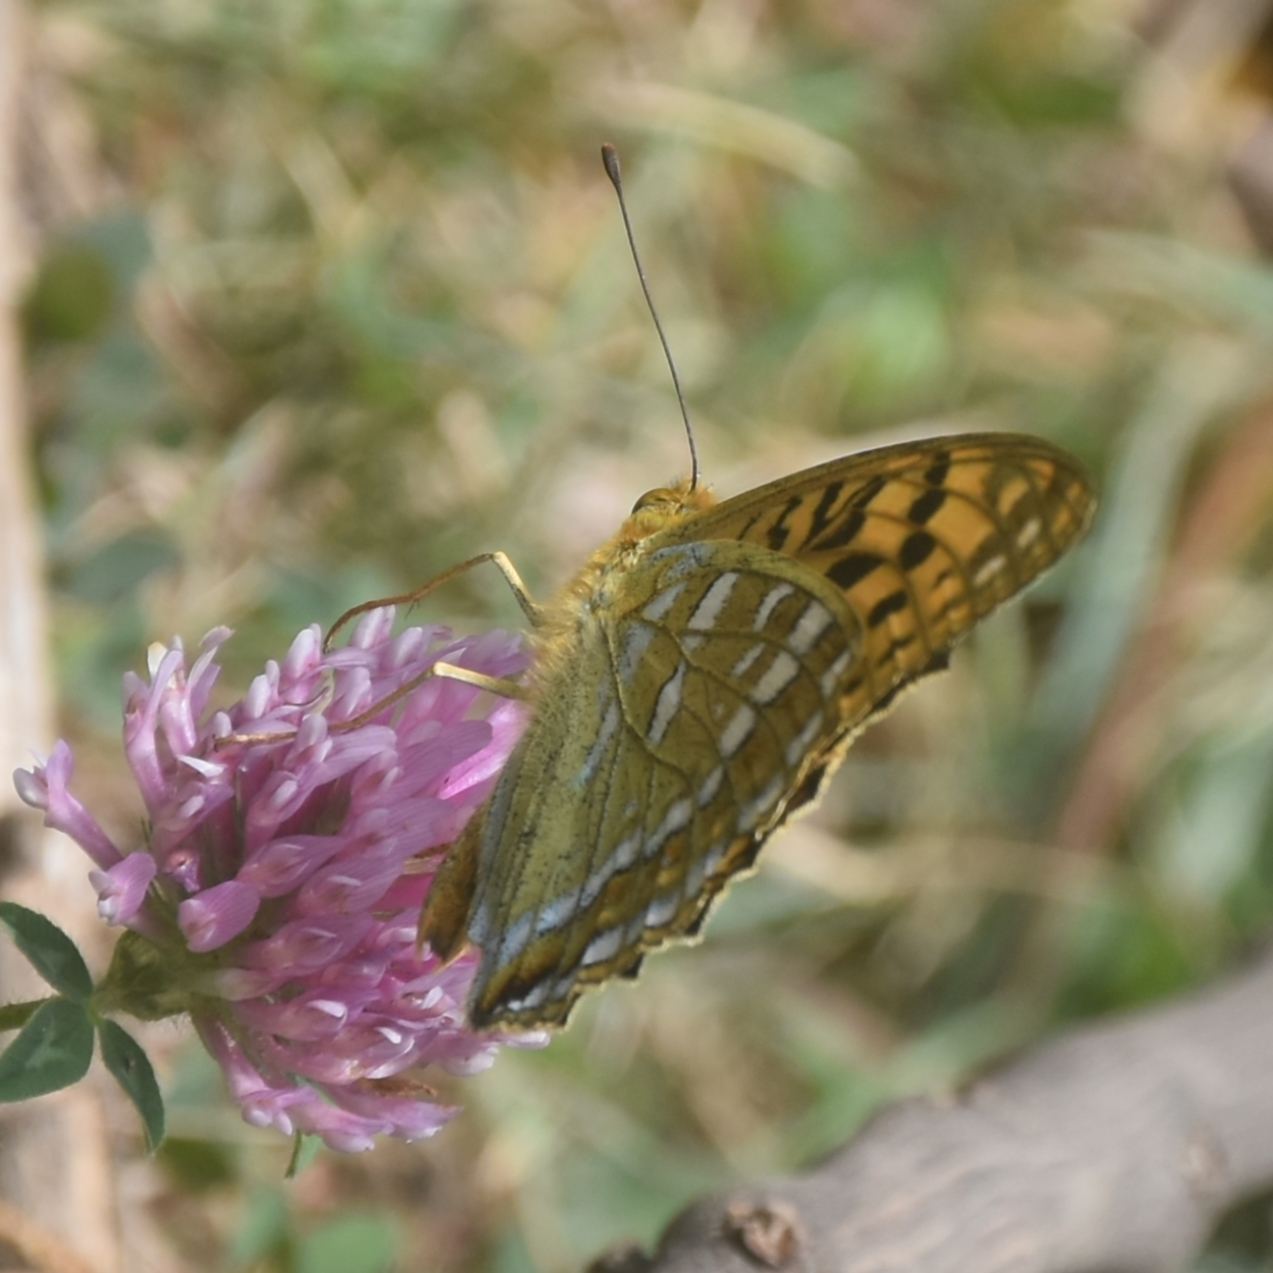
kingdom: Animalia
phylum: Arthropoda
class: Insecta
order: Lepidoptera
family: Nymphalidae
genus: Fabriciana
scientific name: Fabriciana kamala
